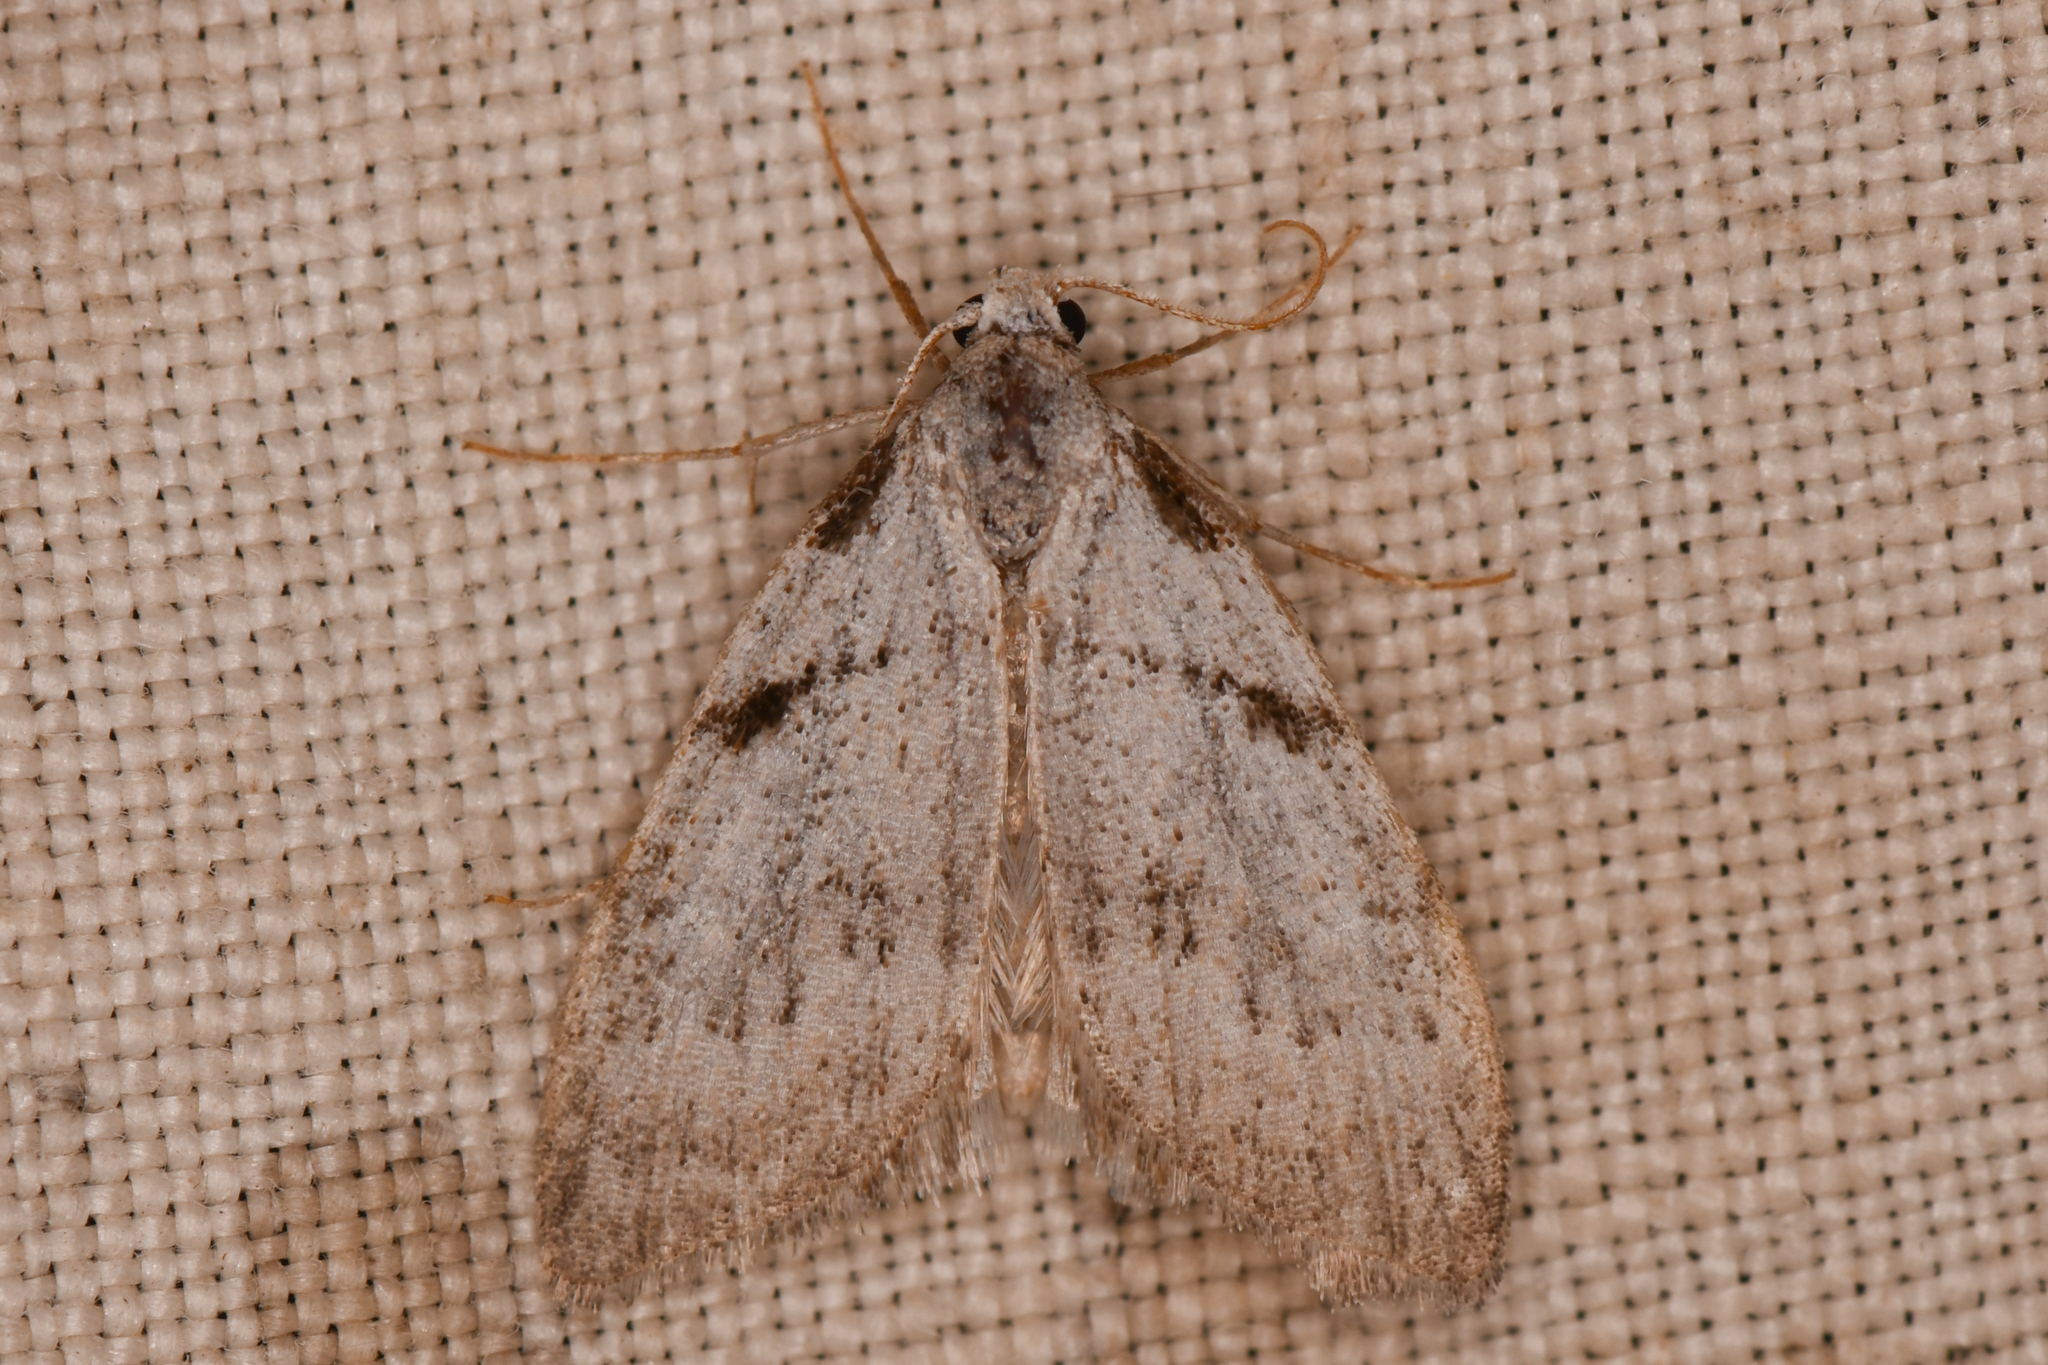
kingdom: Animalia
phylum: Arthropoda
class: Insecta
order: Lepidoptera
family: Nolidae
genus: Nola
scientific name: Nola minna
